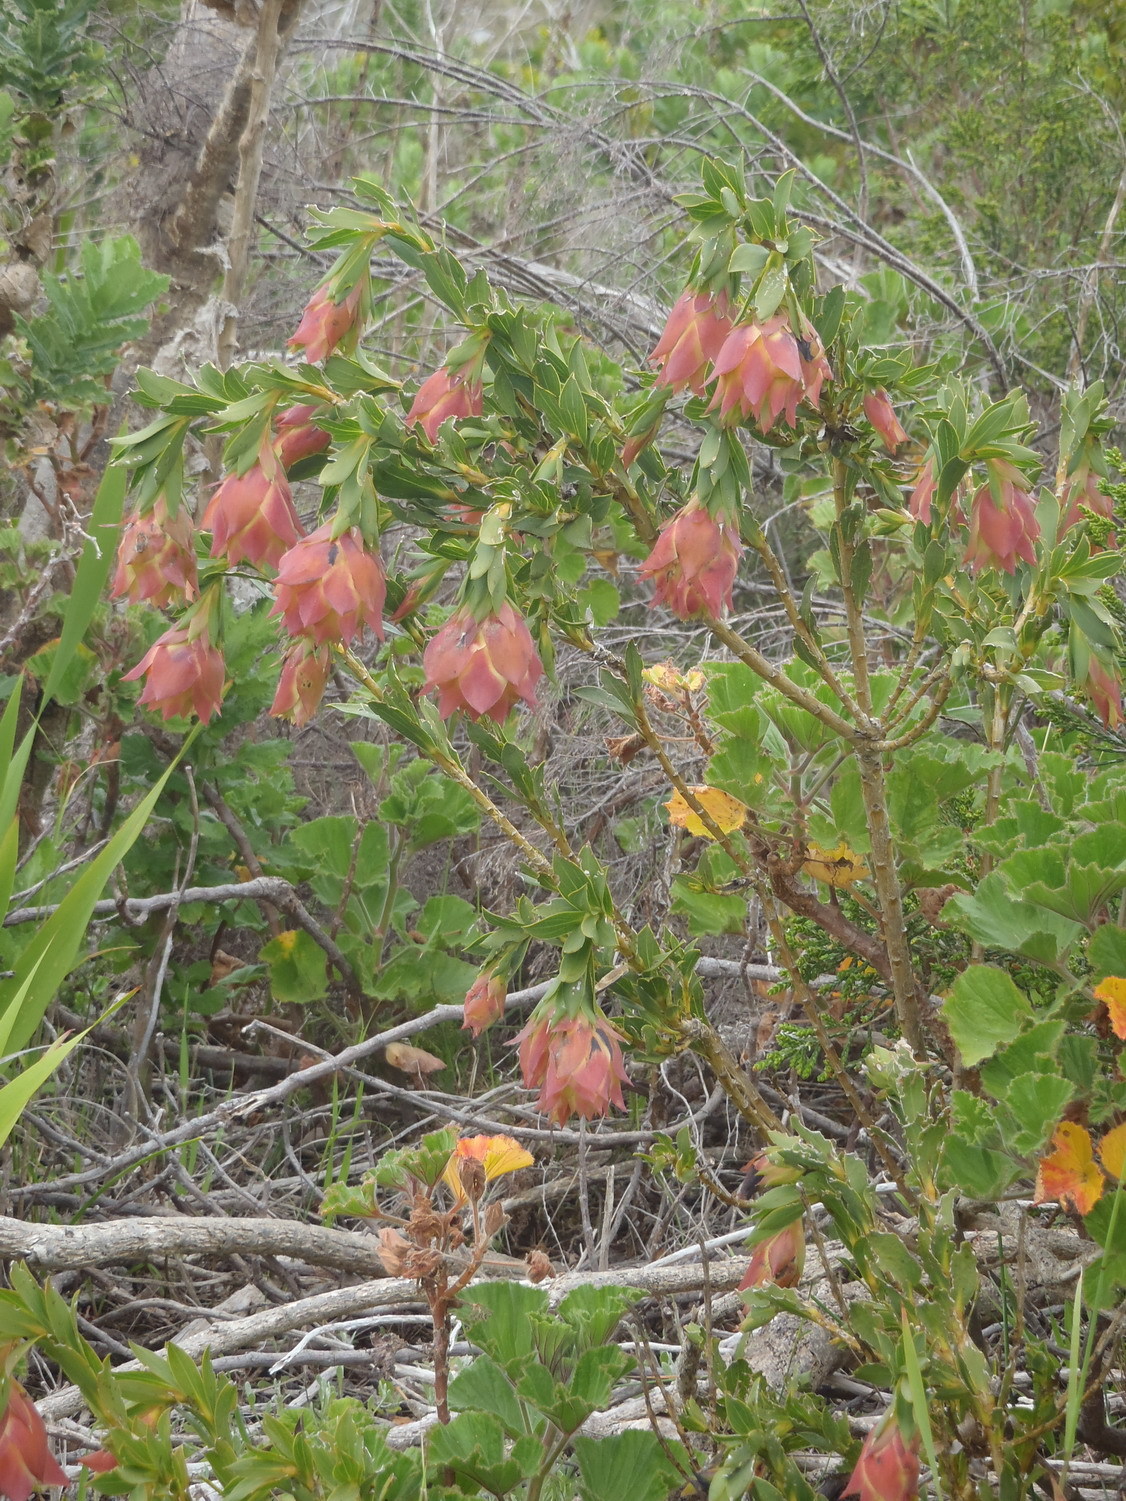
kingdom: Plantae
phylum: Tracheophyta
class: Magnoliopsida
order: Fabales
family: Fabaceae
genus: Liparia
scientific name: Liparia splendens
